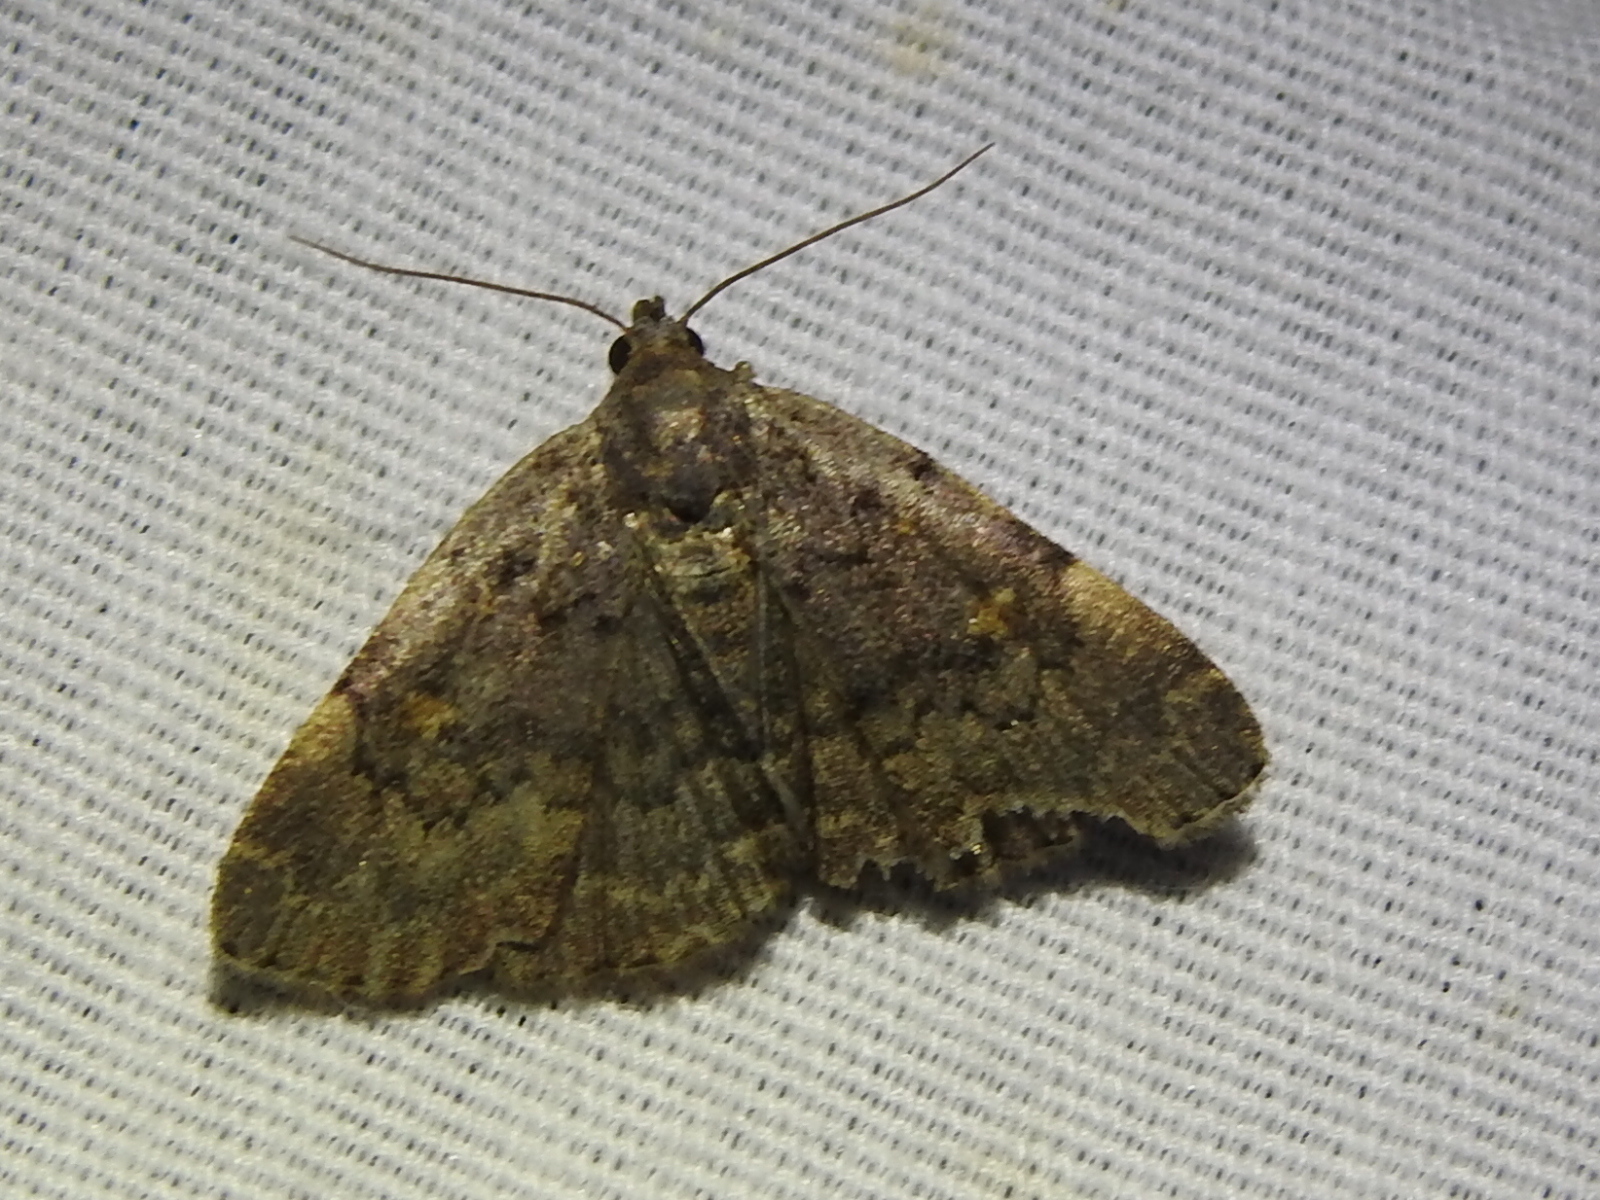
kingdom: Animalia
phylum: Arthropoda
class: Insecta
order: Lepidoptera
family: Erebidae
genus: Idia
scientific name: Idia aemula
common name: Common idia moth
